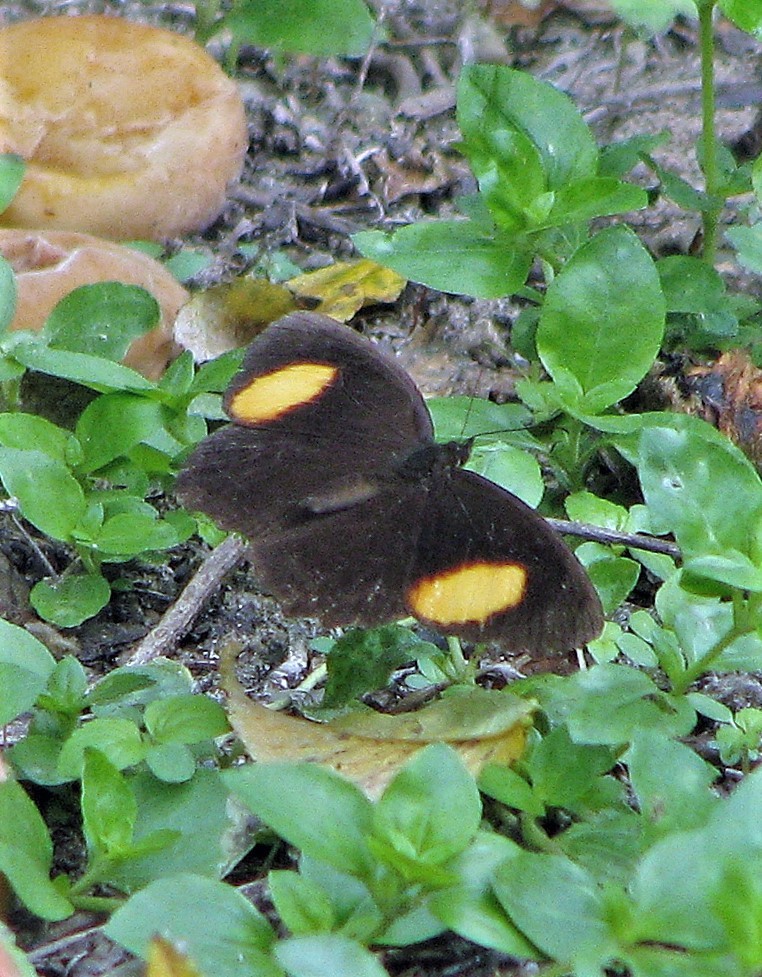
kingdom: Animalia
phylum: Arthropoda
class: Insecta
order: Lepidoptera
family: Nymphalidae
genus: Physcopedaliodes
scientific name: Physcopedaliodes physcoa
